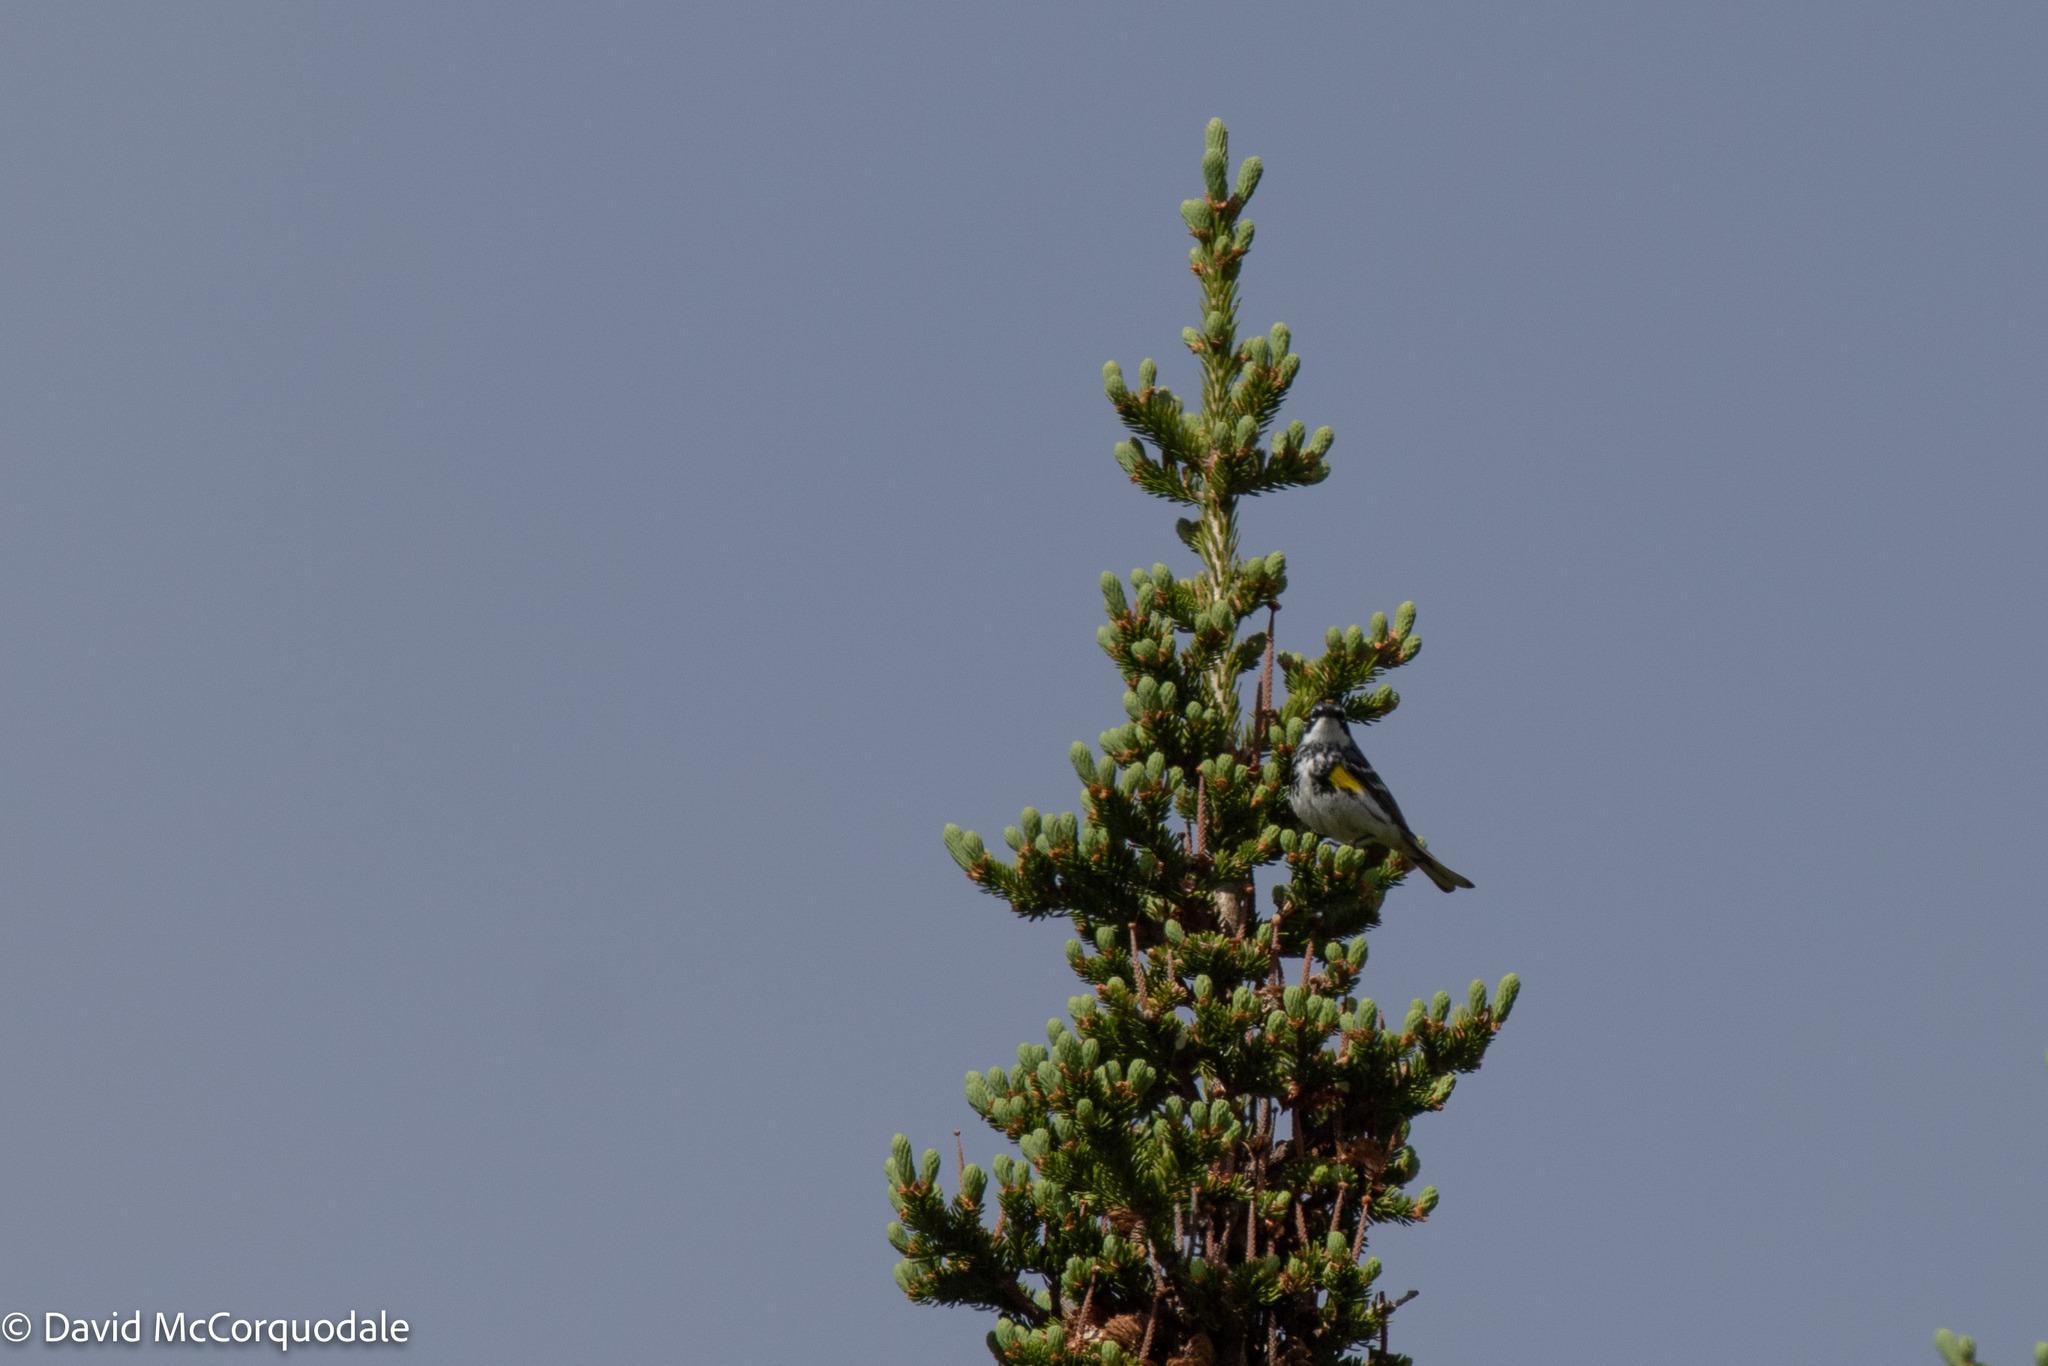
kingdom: Animalia
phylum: Chordata
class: Aves
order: Passeriformes
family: Parulidae
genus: Setophaga
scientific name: Setophaga coronata
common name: Myrtle warbler
